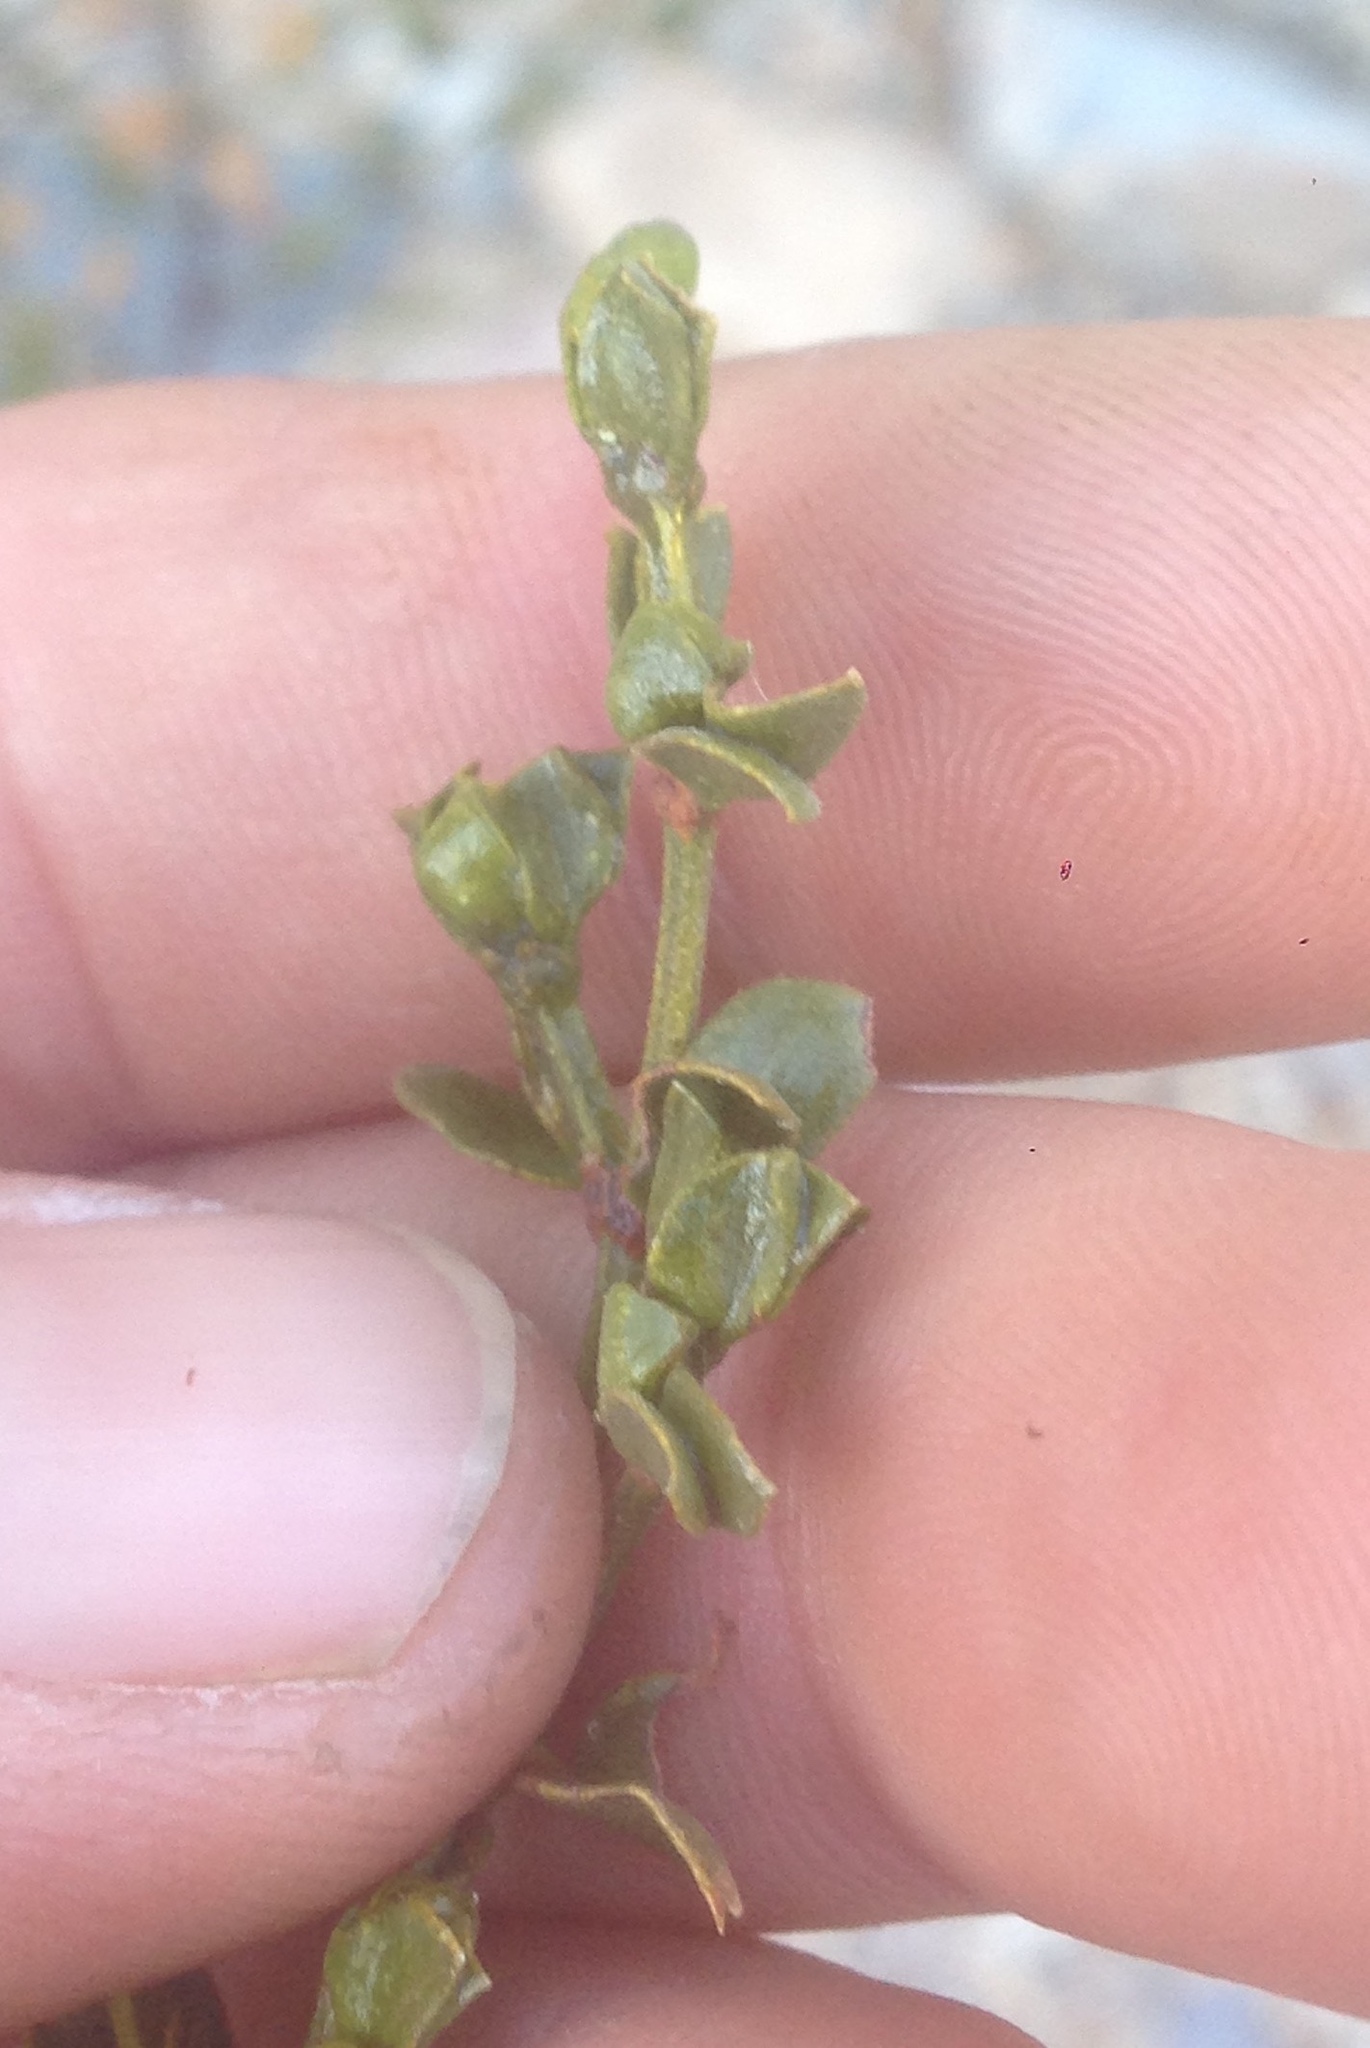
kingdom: Plantae
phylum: Tracheophyta
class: Magnoliopsida
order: Zygophyllales
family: Zygophyllaceae
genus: Larrea
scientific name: Larrea tridentata
